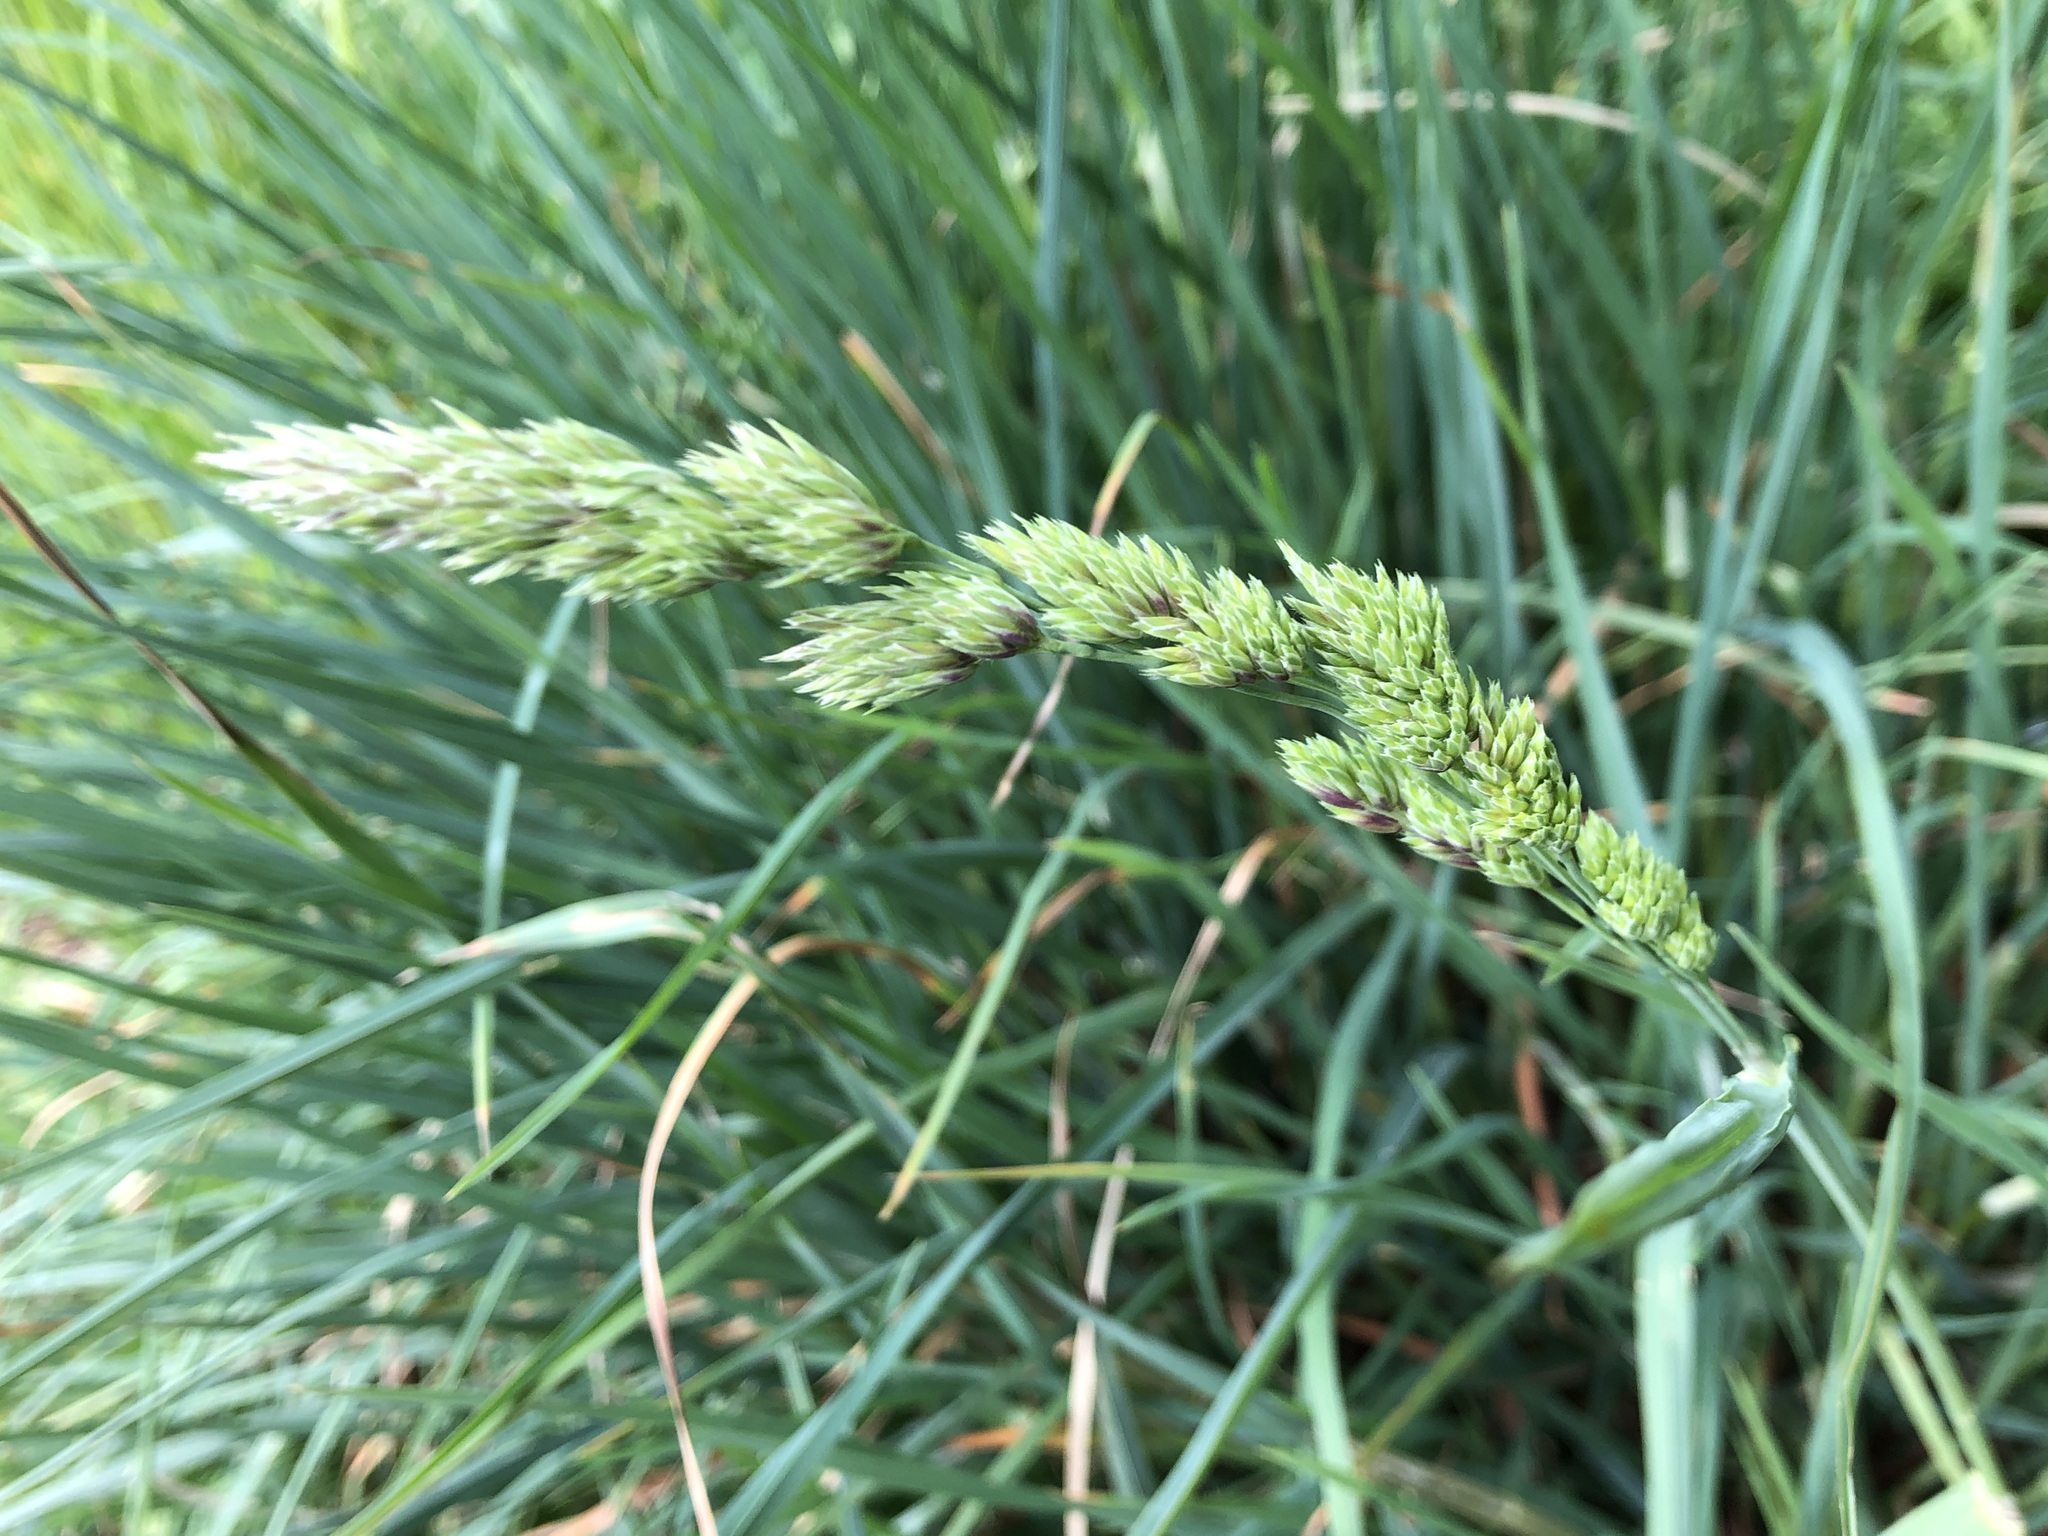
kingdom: Plantae
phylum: Tracheophyta
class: Liliopsida
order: Poales
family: Poaceae
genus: Dactylis
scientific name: Dactylis glomerata
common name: Orchardgrass
